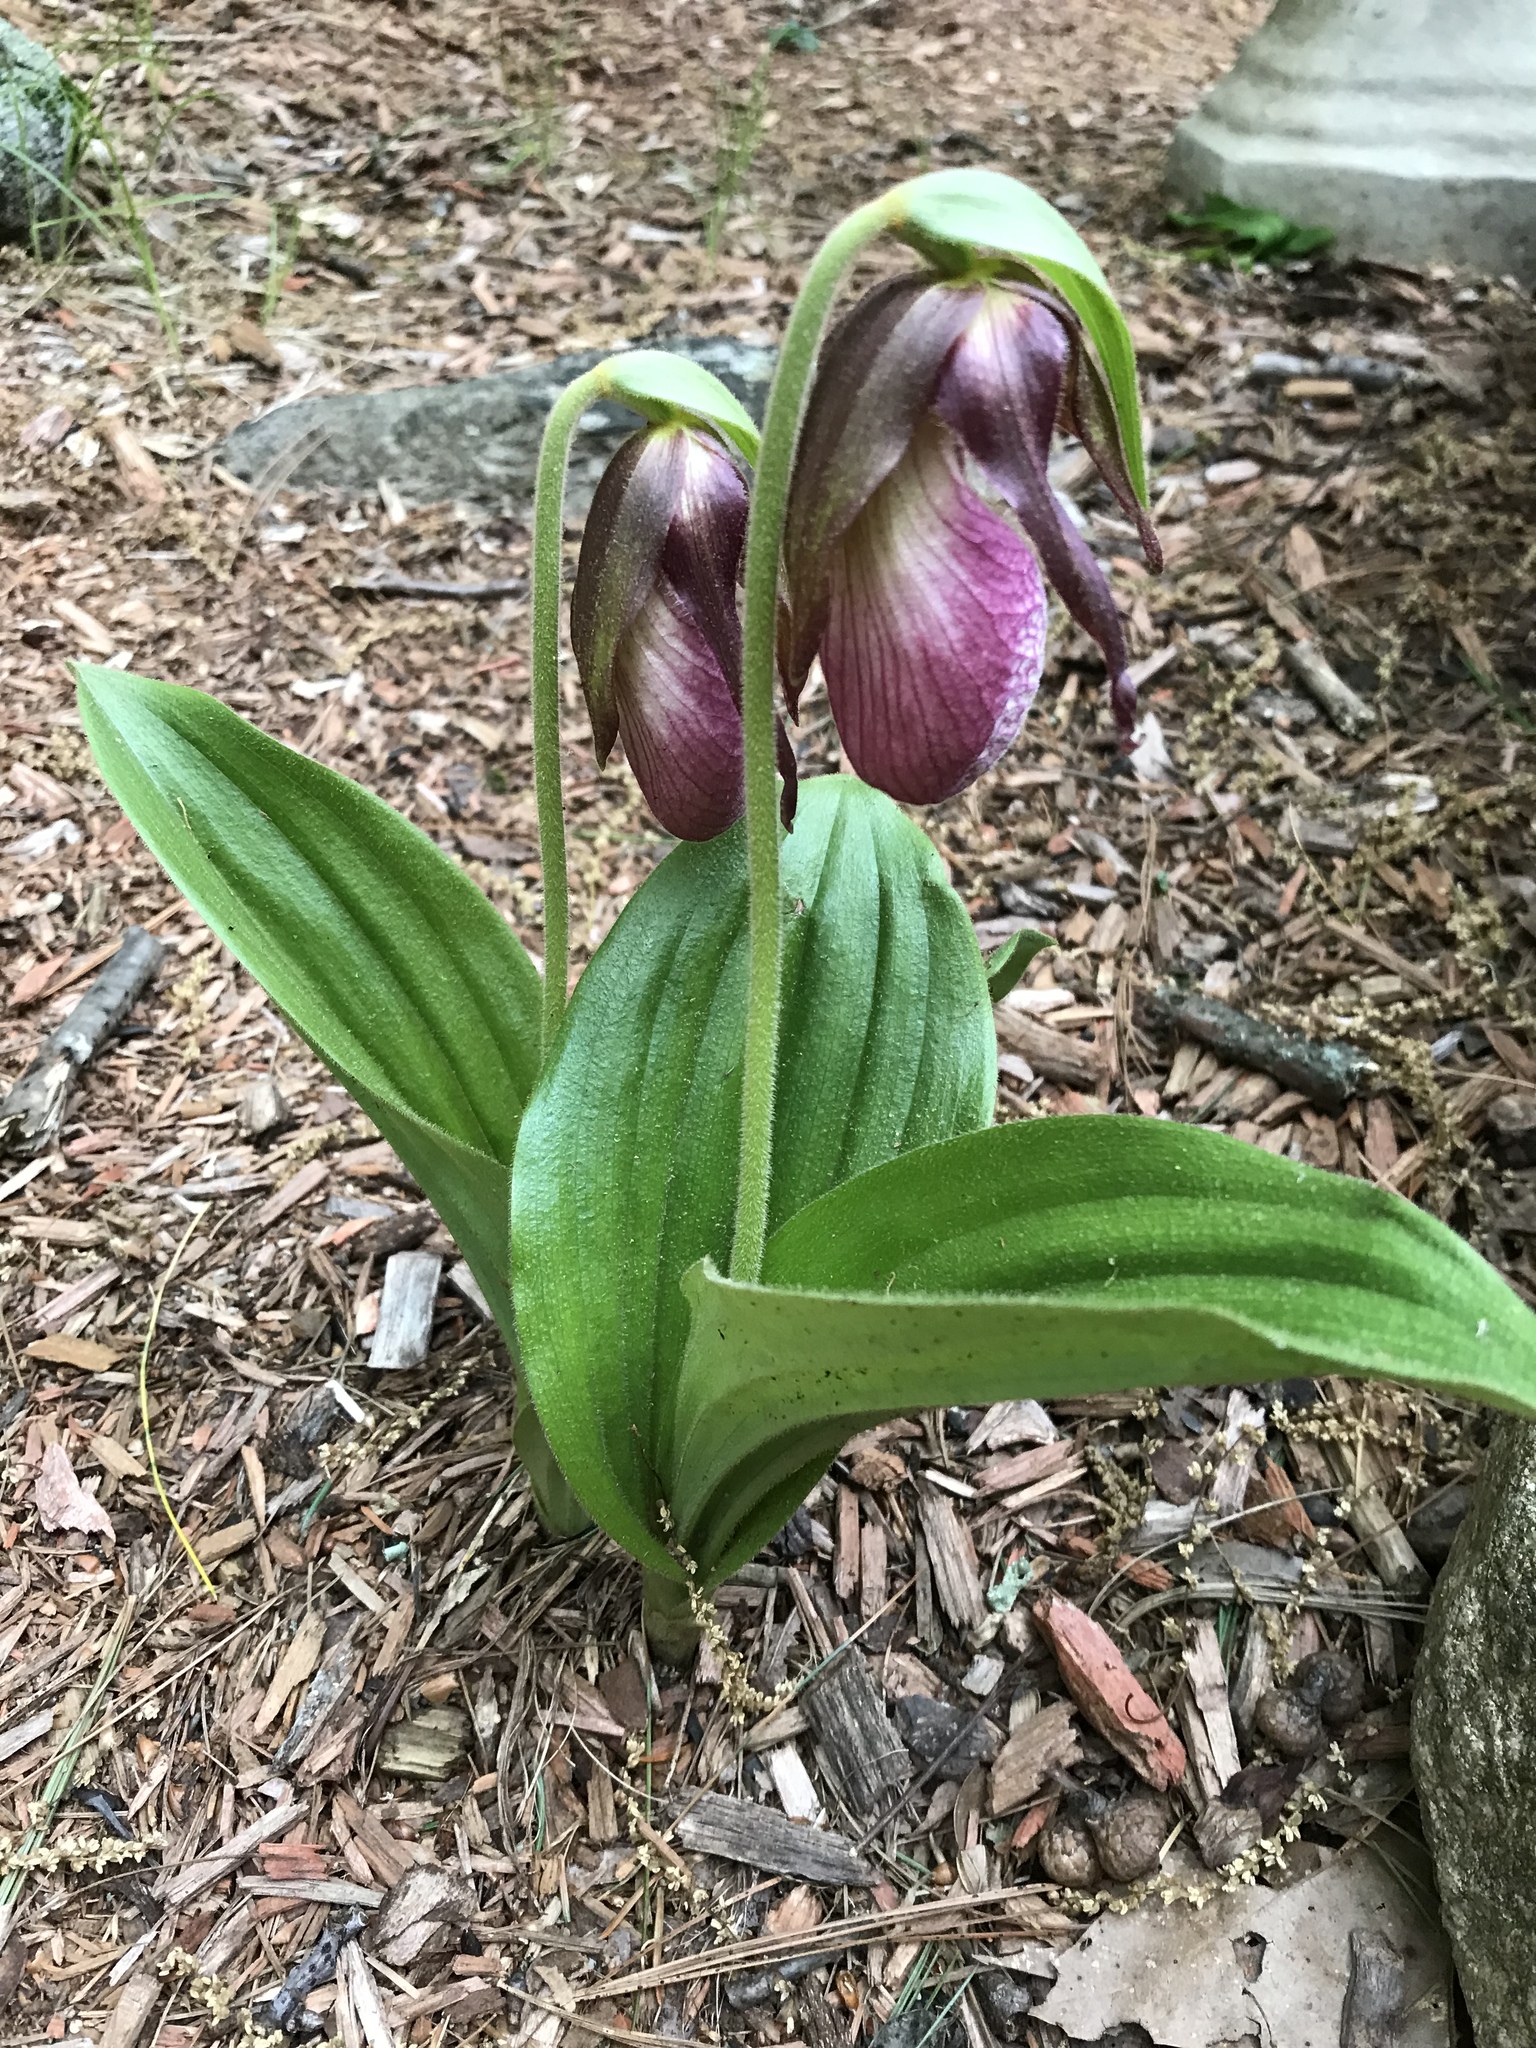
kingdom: Plantae
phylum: Tracheophyta
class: Liliopsida
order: Asparagales
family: Orchidaceae
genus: Cypripedium
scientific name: Cypripedium acaule
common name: Pink lady's-slipper
